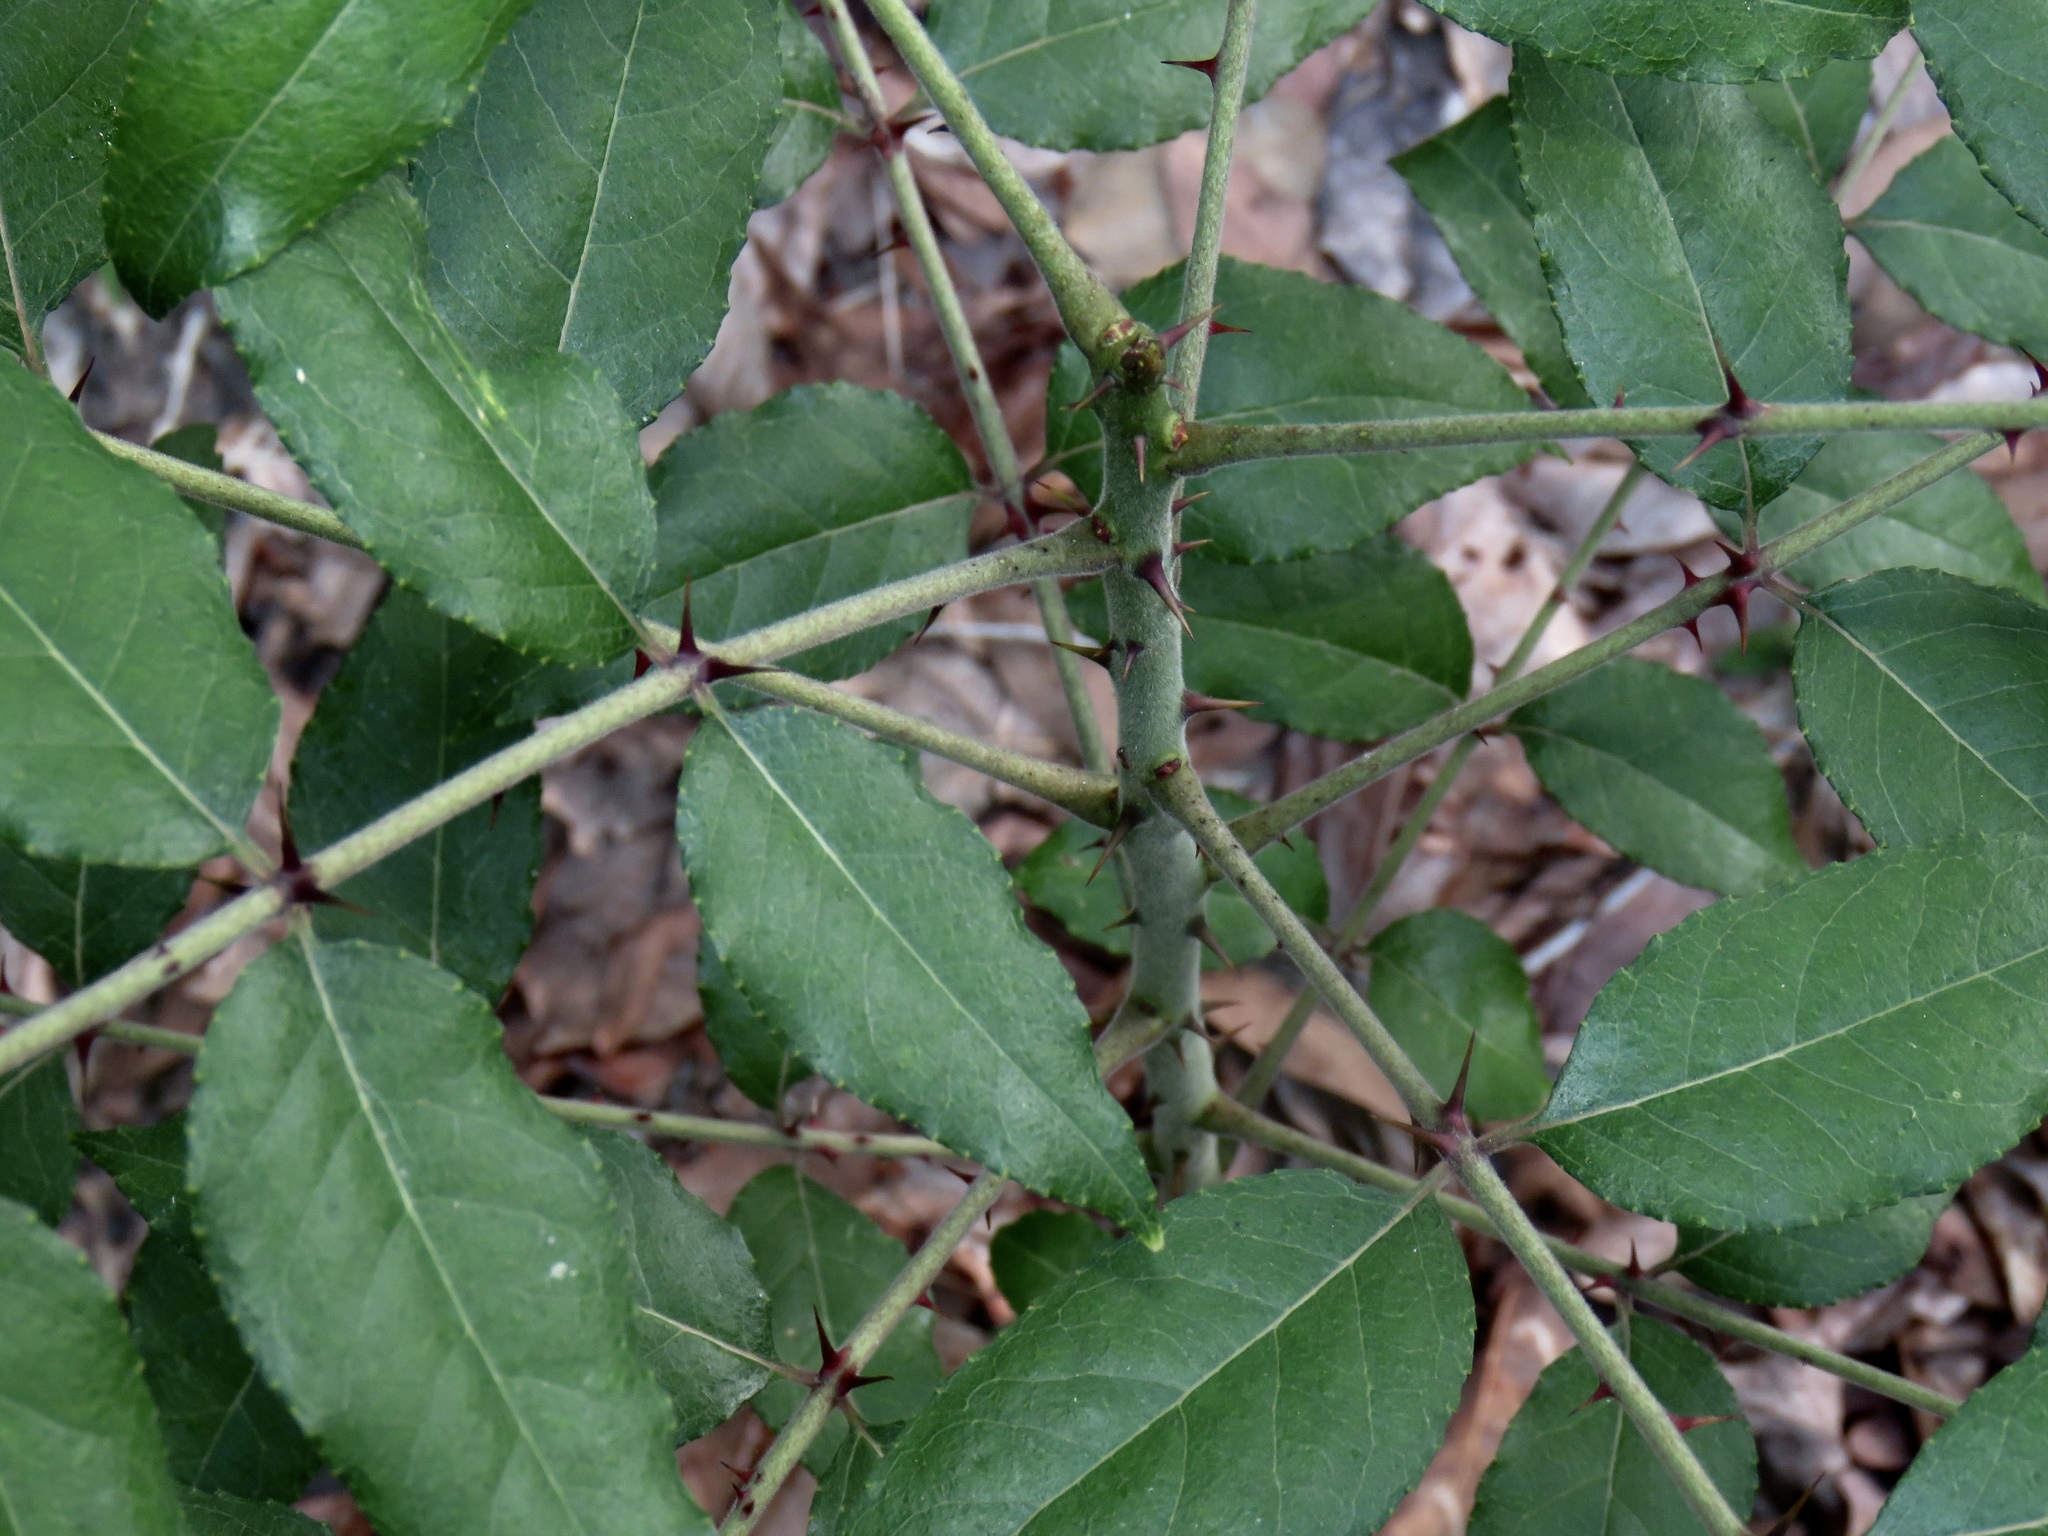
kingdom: Plantae
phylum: Tracheophyta
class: Magnoliopsida
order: Sapindales
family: Rutaceae
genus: Zanthoxylum
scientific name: Zanthoxylum clava-herculis
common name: Hercules'-club
